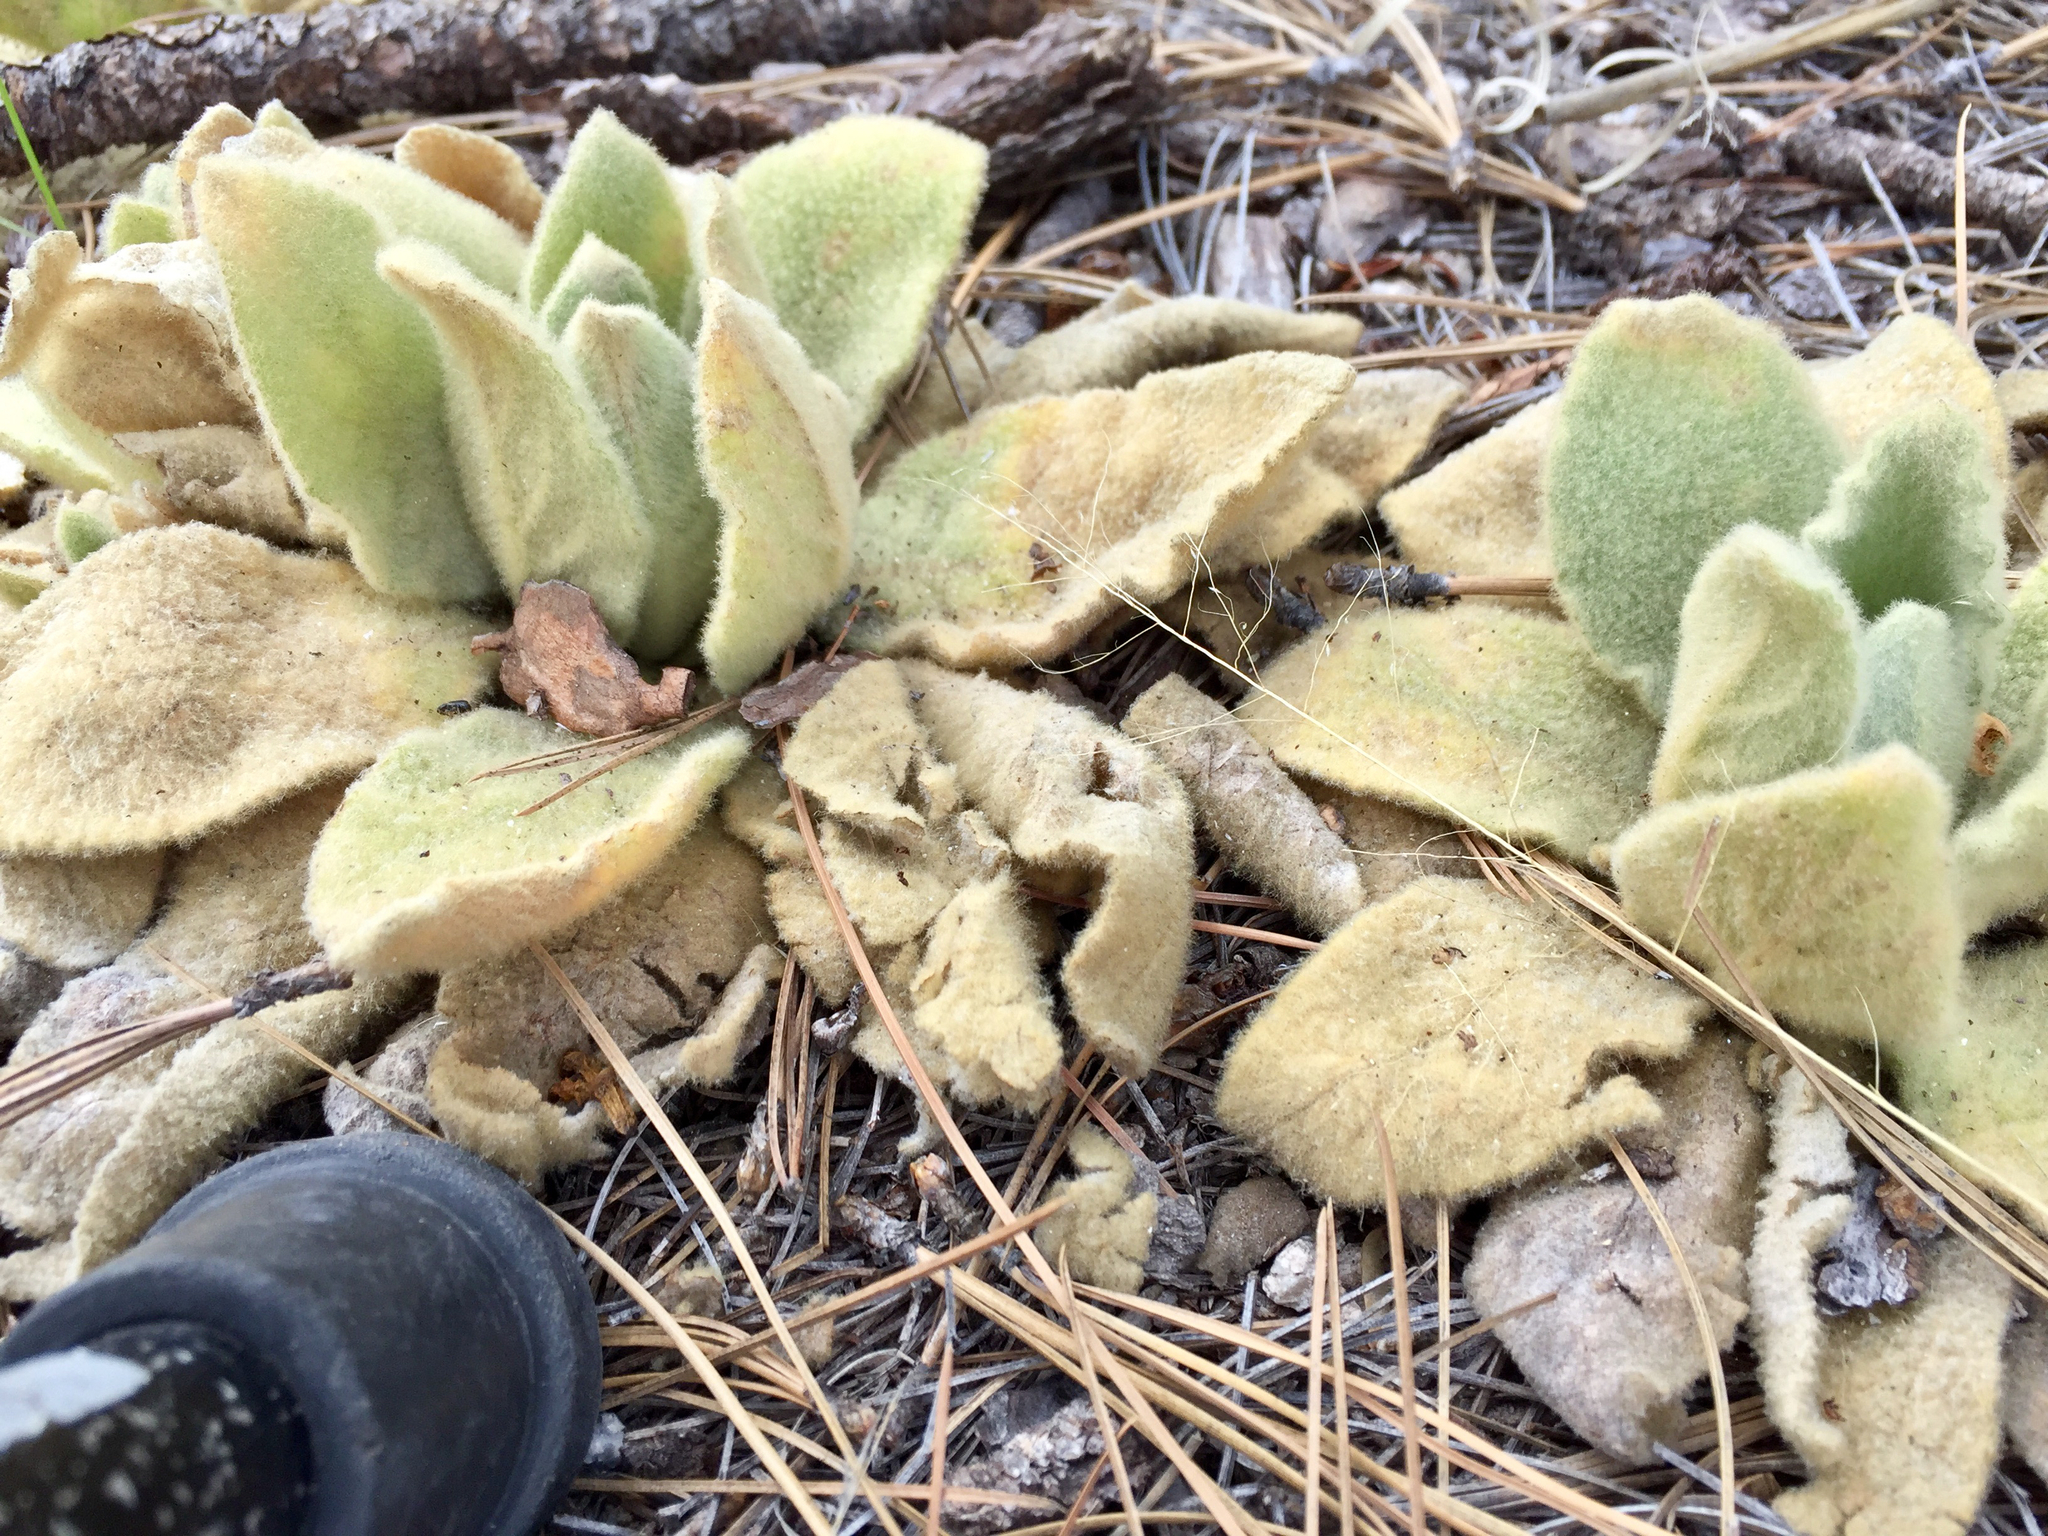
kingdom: Plantae
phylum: Tracheophyta
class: Magnoliopsida
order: Lamiales
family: Scrophulariaceae
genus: Verbascum
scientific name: Verbascum thapsus
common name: Common mullein
